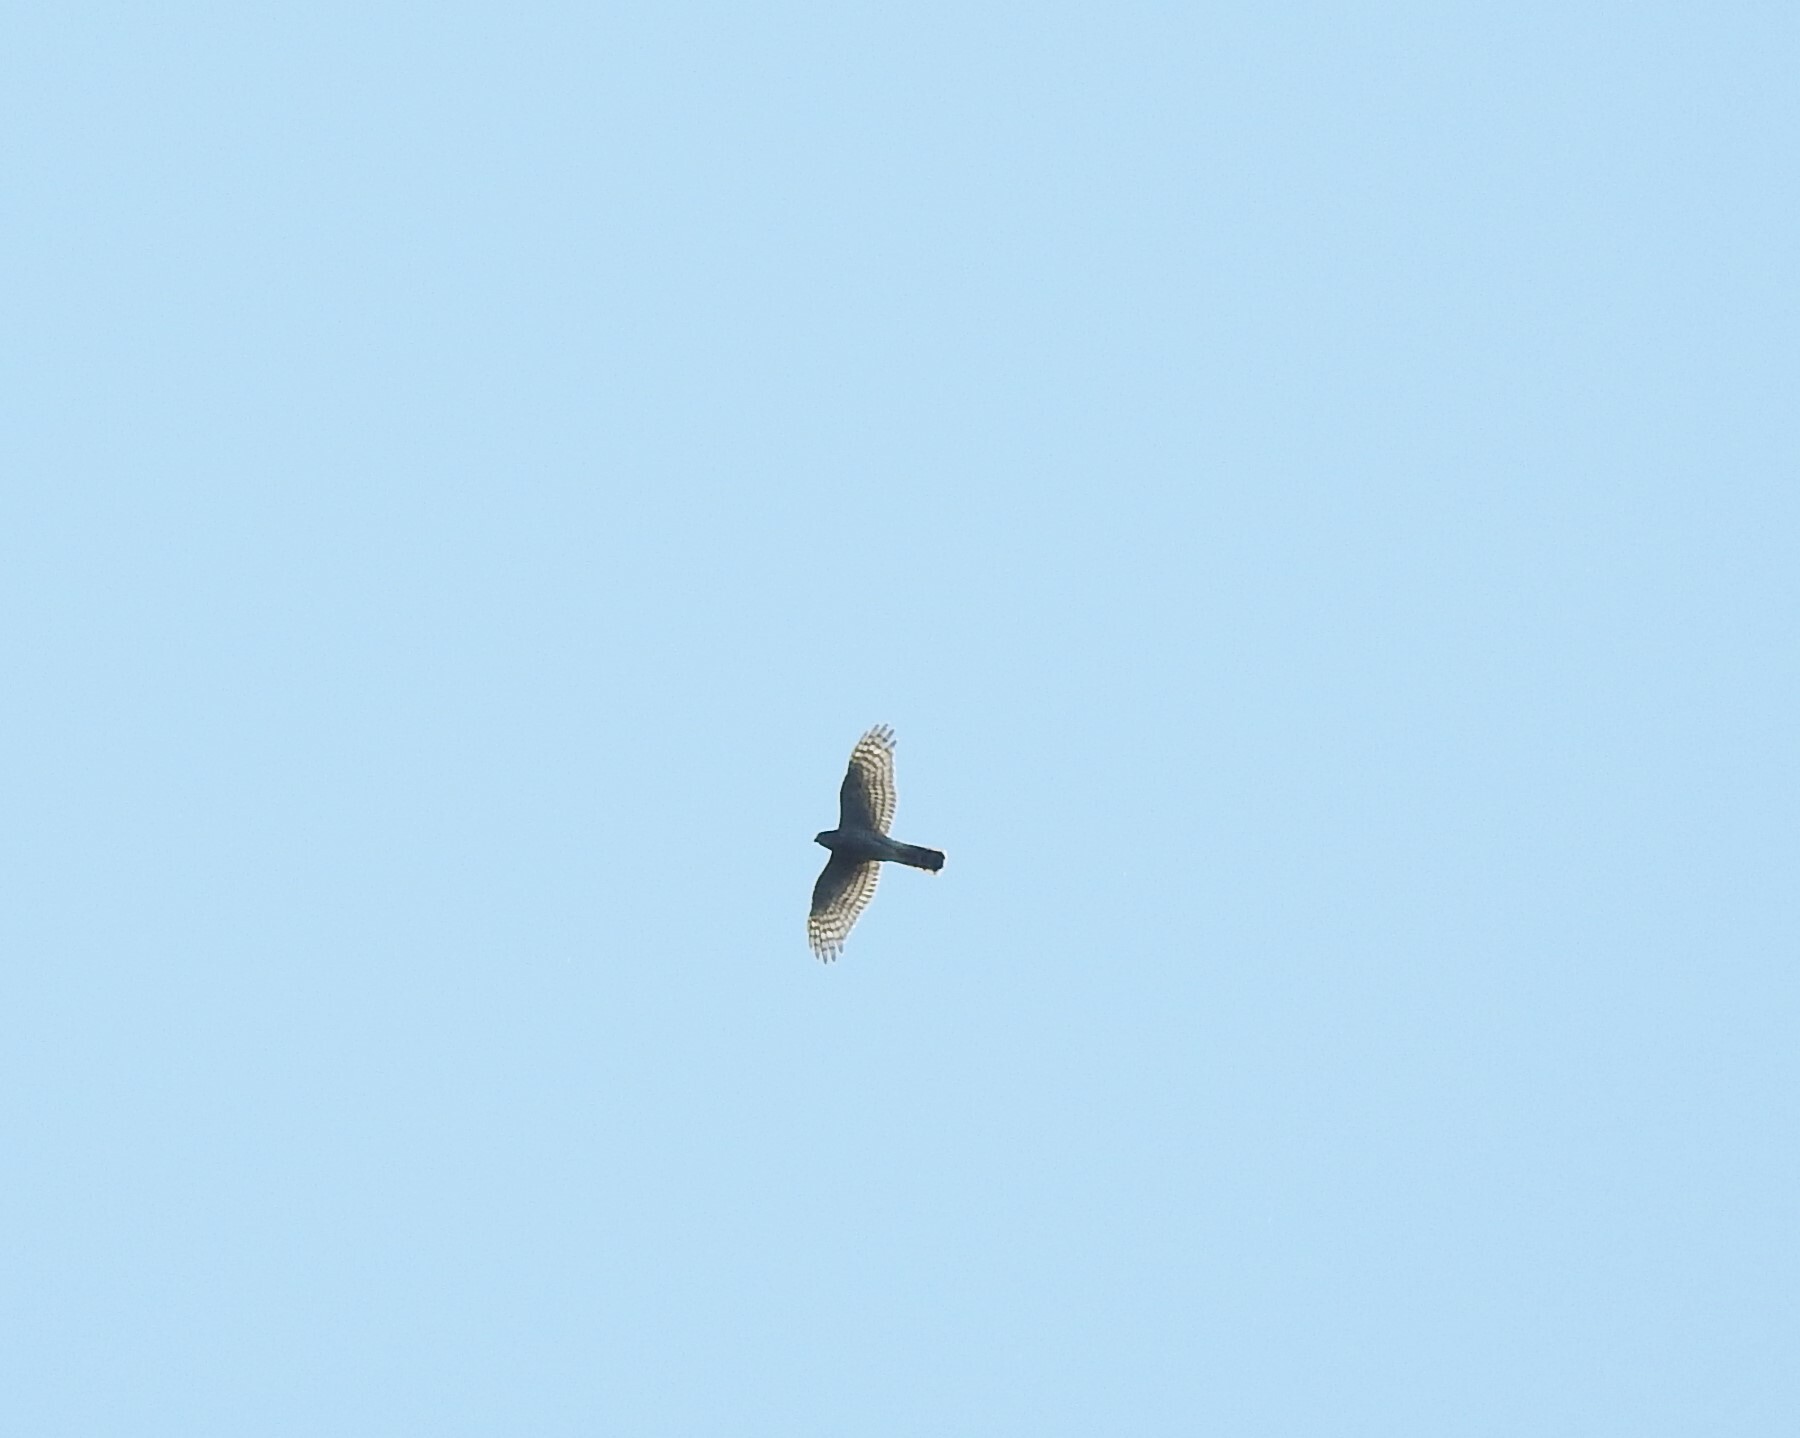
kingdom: Animalia
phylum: Chordata
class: Aves
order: Accipitriformes
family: Accipitridae
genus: Accipiter
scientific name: Accipiter nisus
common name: Eurasian sparrowhawk
